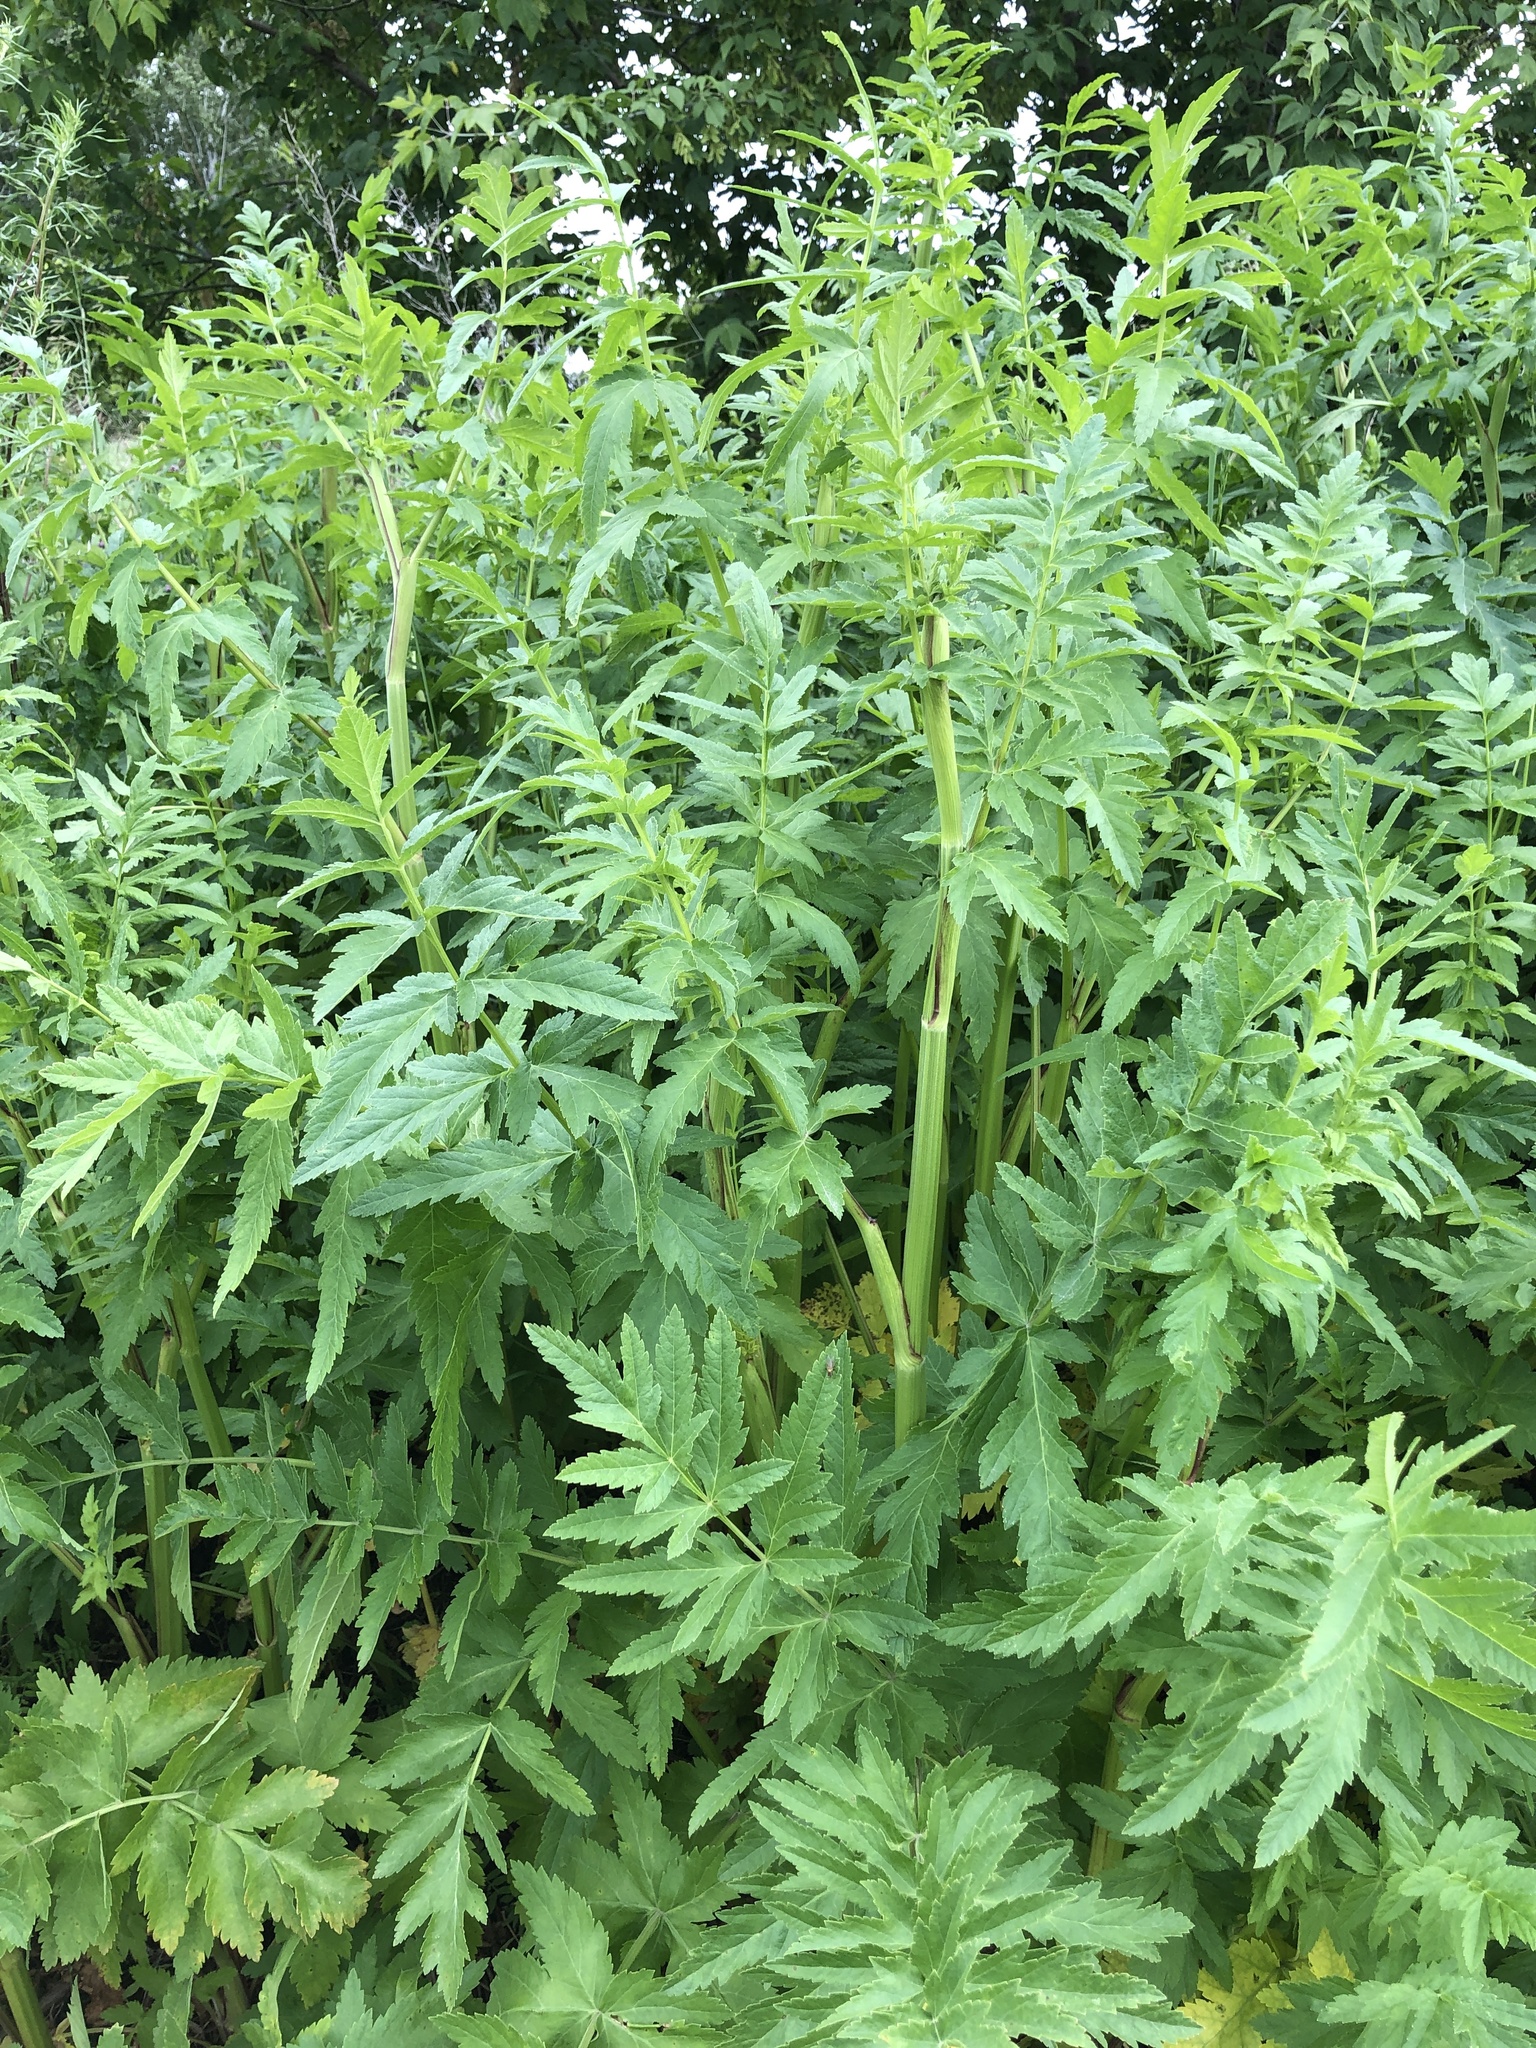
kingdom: Plantae
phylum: Tracheophyta
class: Magnoliopsida
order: Apiales
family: Apiaceae
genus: Pastinaca
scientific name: Pastinaca sativa
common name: Wild parsnip
